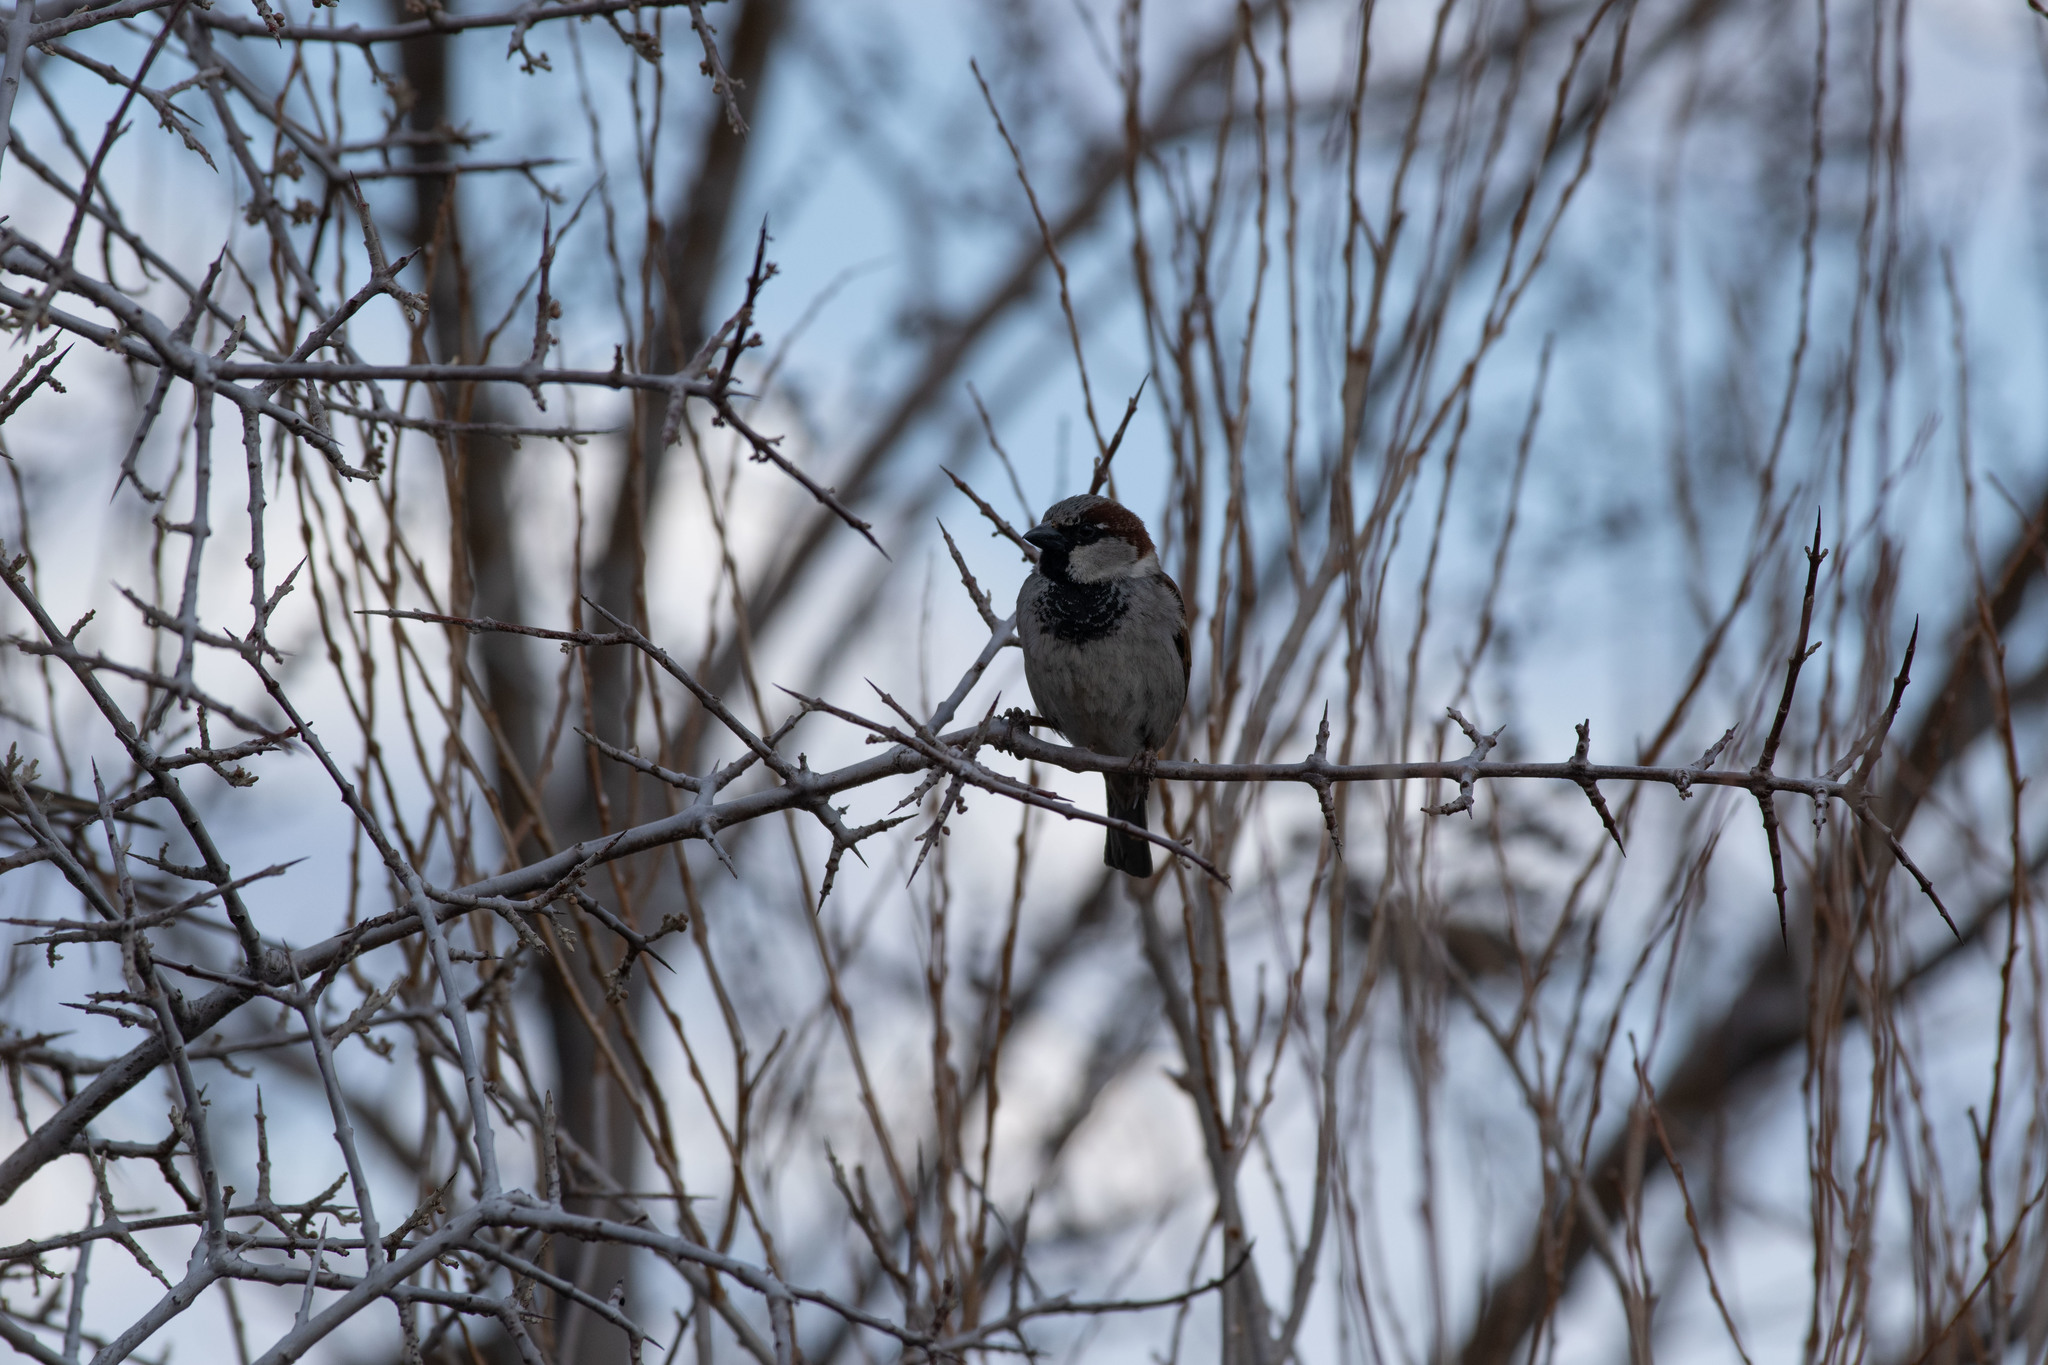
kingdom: Animalia
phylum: Chordata
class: Aves
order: Passeriformes
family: Passeridae
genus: Passer
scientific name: Passer domesticus
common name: House sparrow
